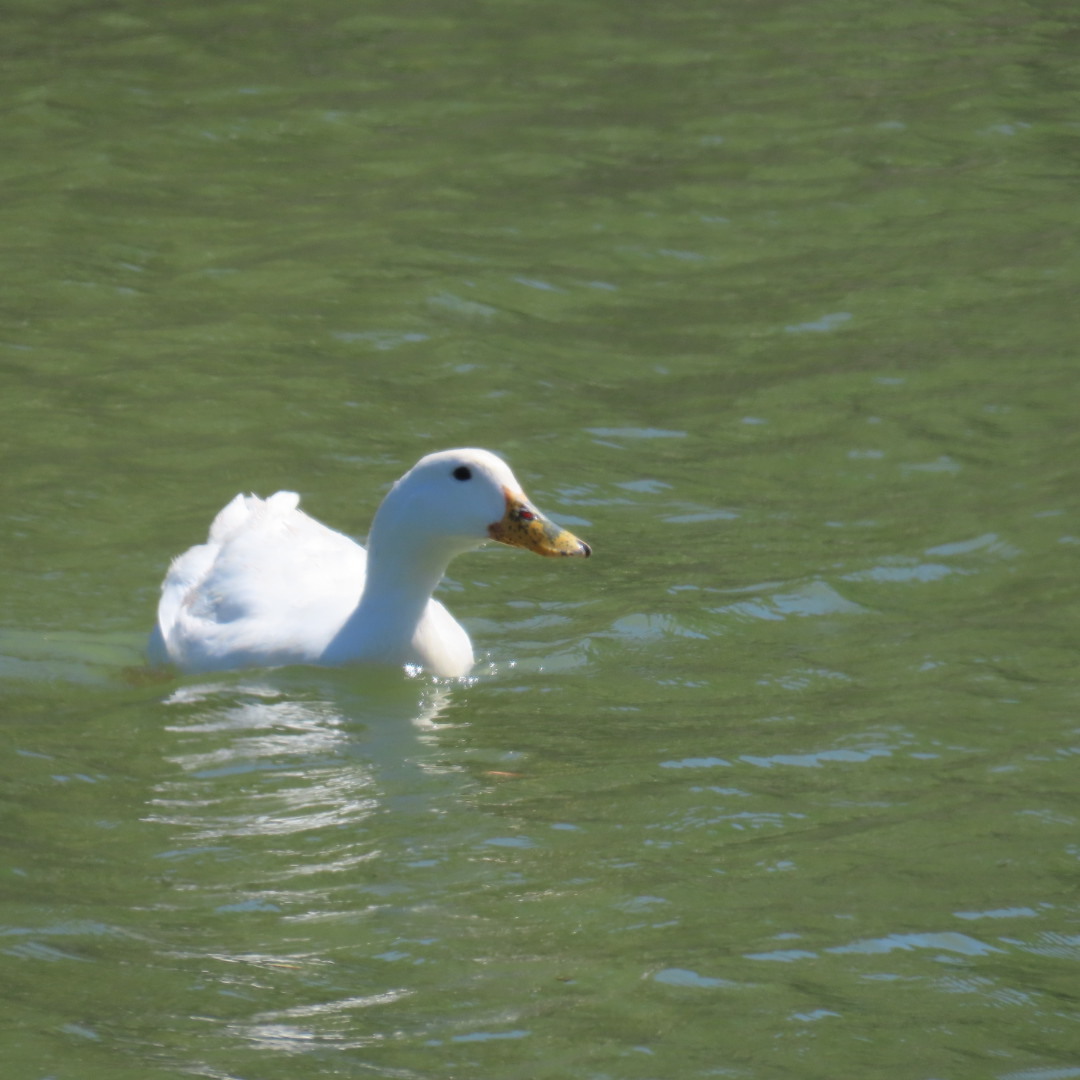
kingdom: Animalia
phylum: Chordata
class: Aves
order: Anseriformes
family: Anatidae
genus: Anas
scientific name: Anas platyrhynchos
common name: Mallard
